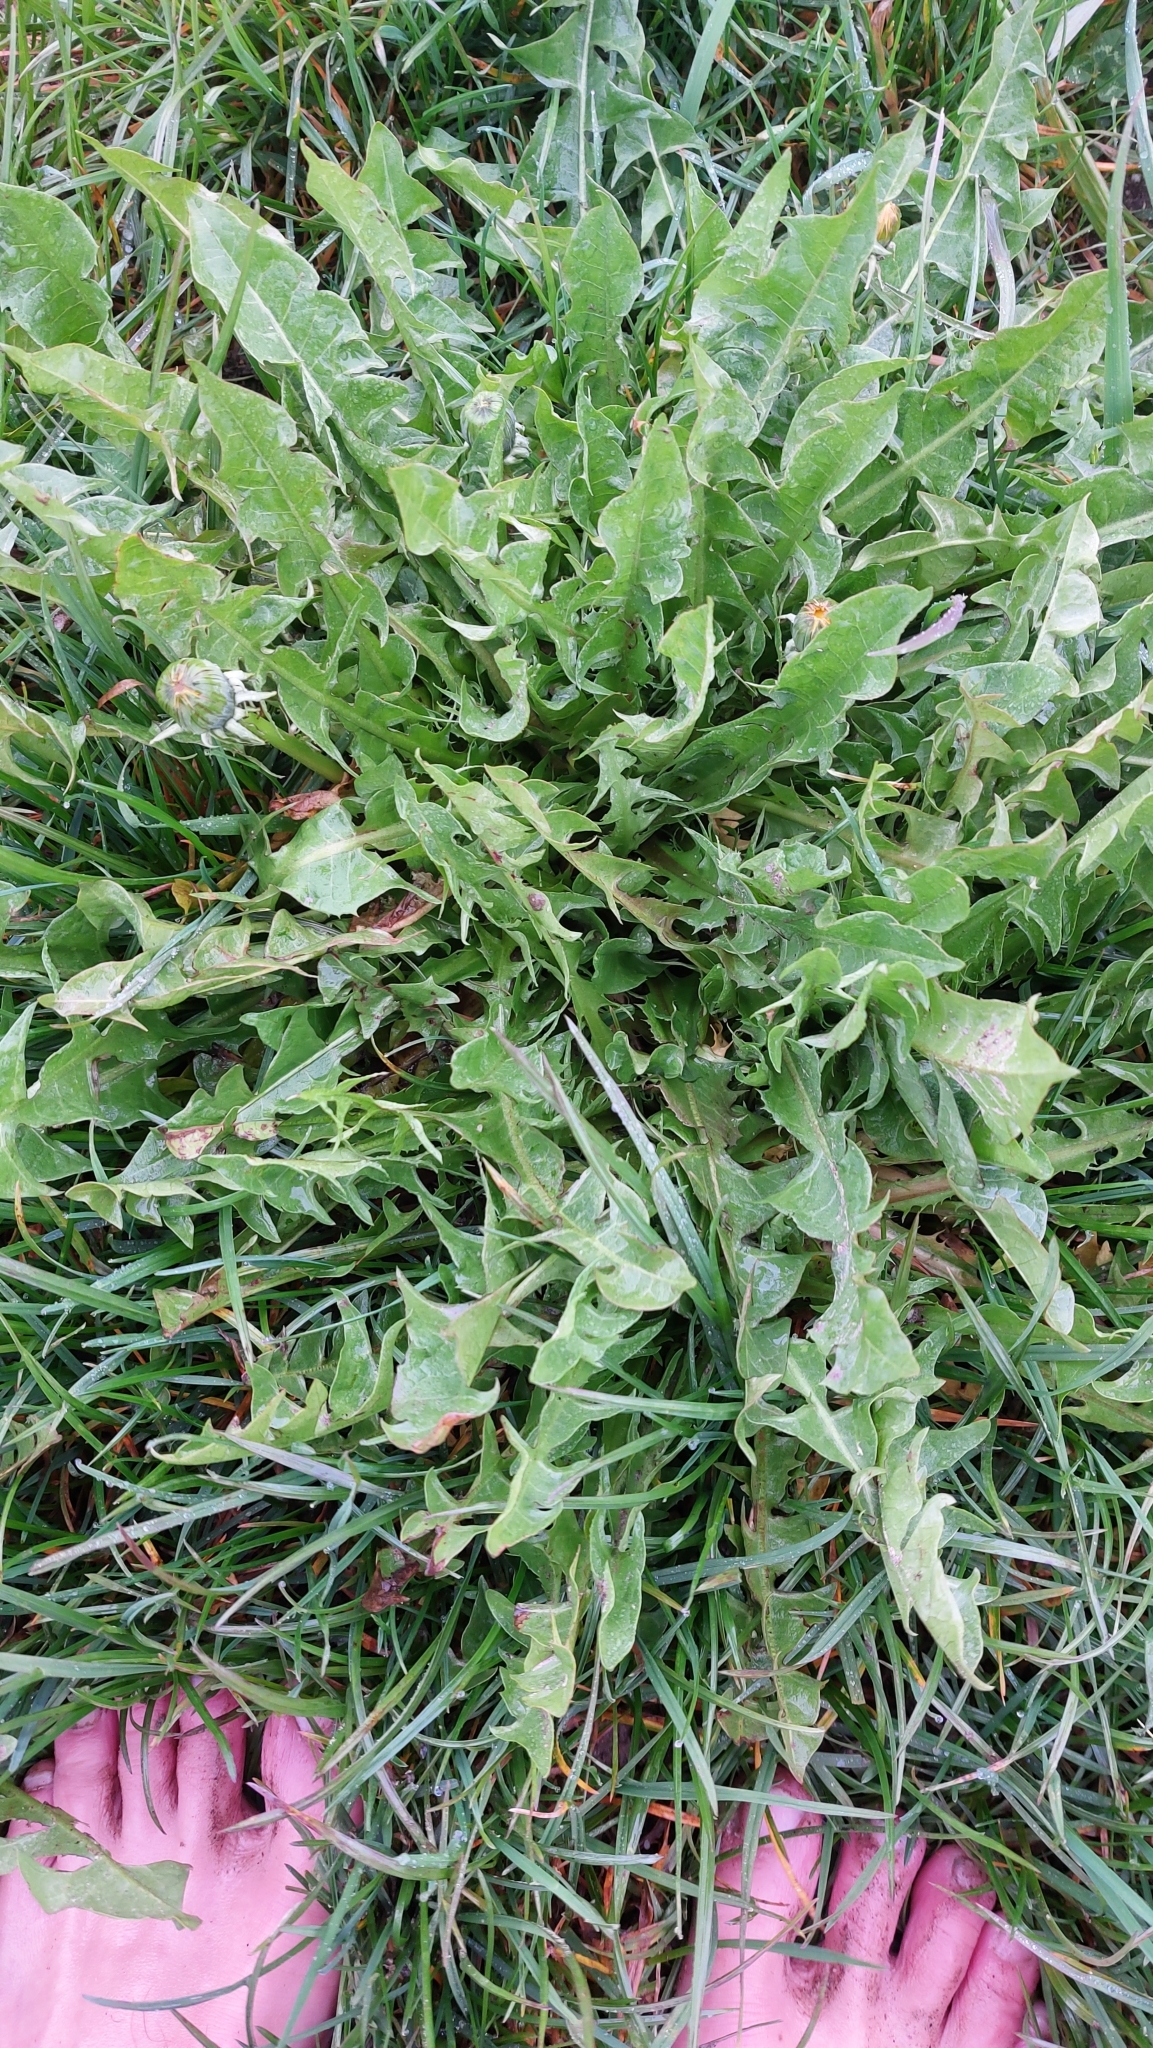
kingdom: Plantae
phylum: Tracheophyta
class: Magnoliopsida
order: Asterales
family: Asteraceae
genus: Taraxacum
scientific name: Taraxacum
